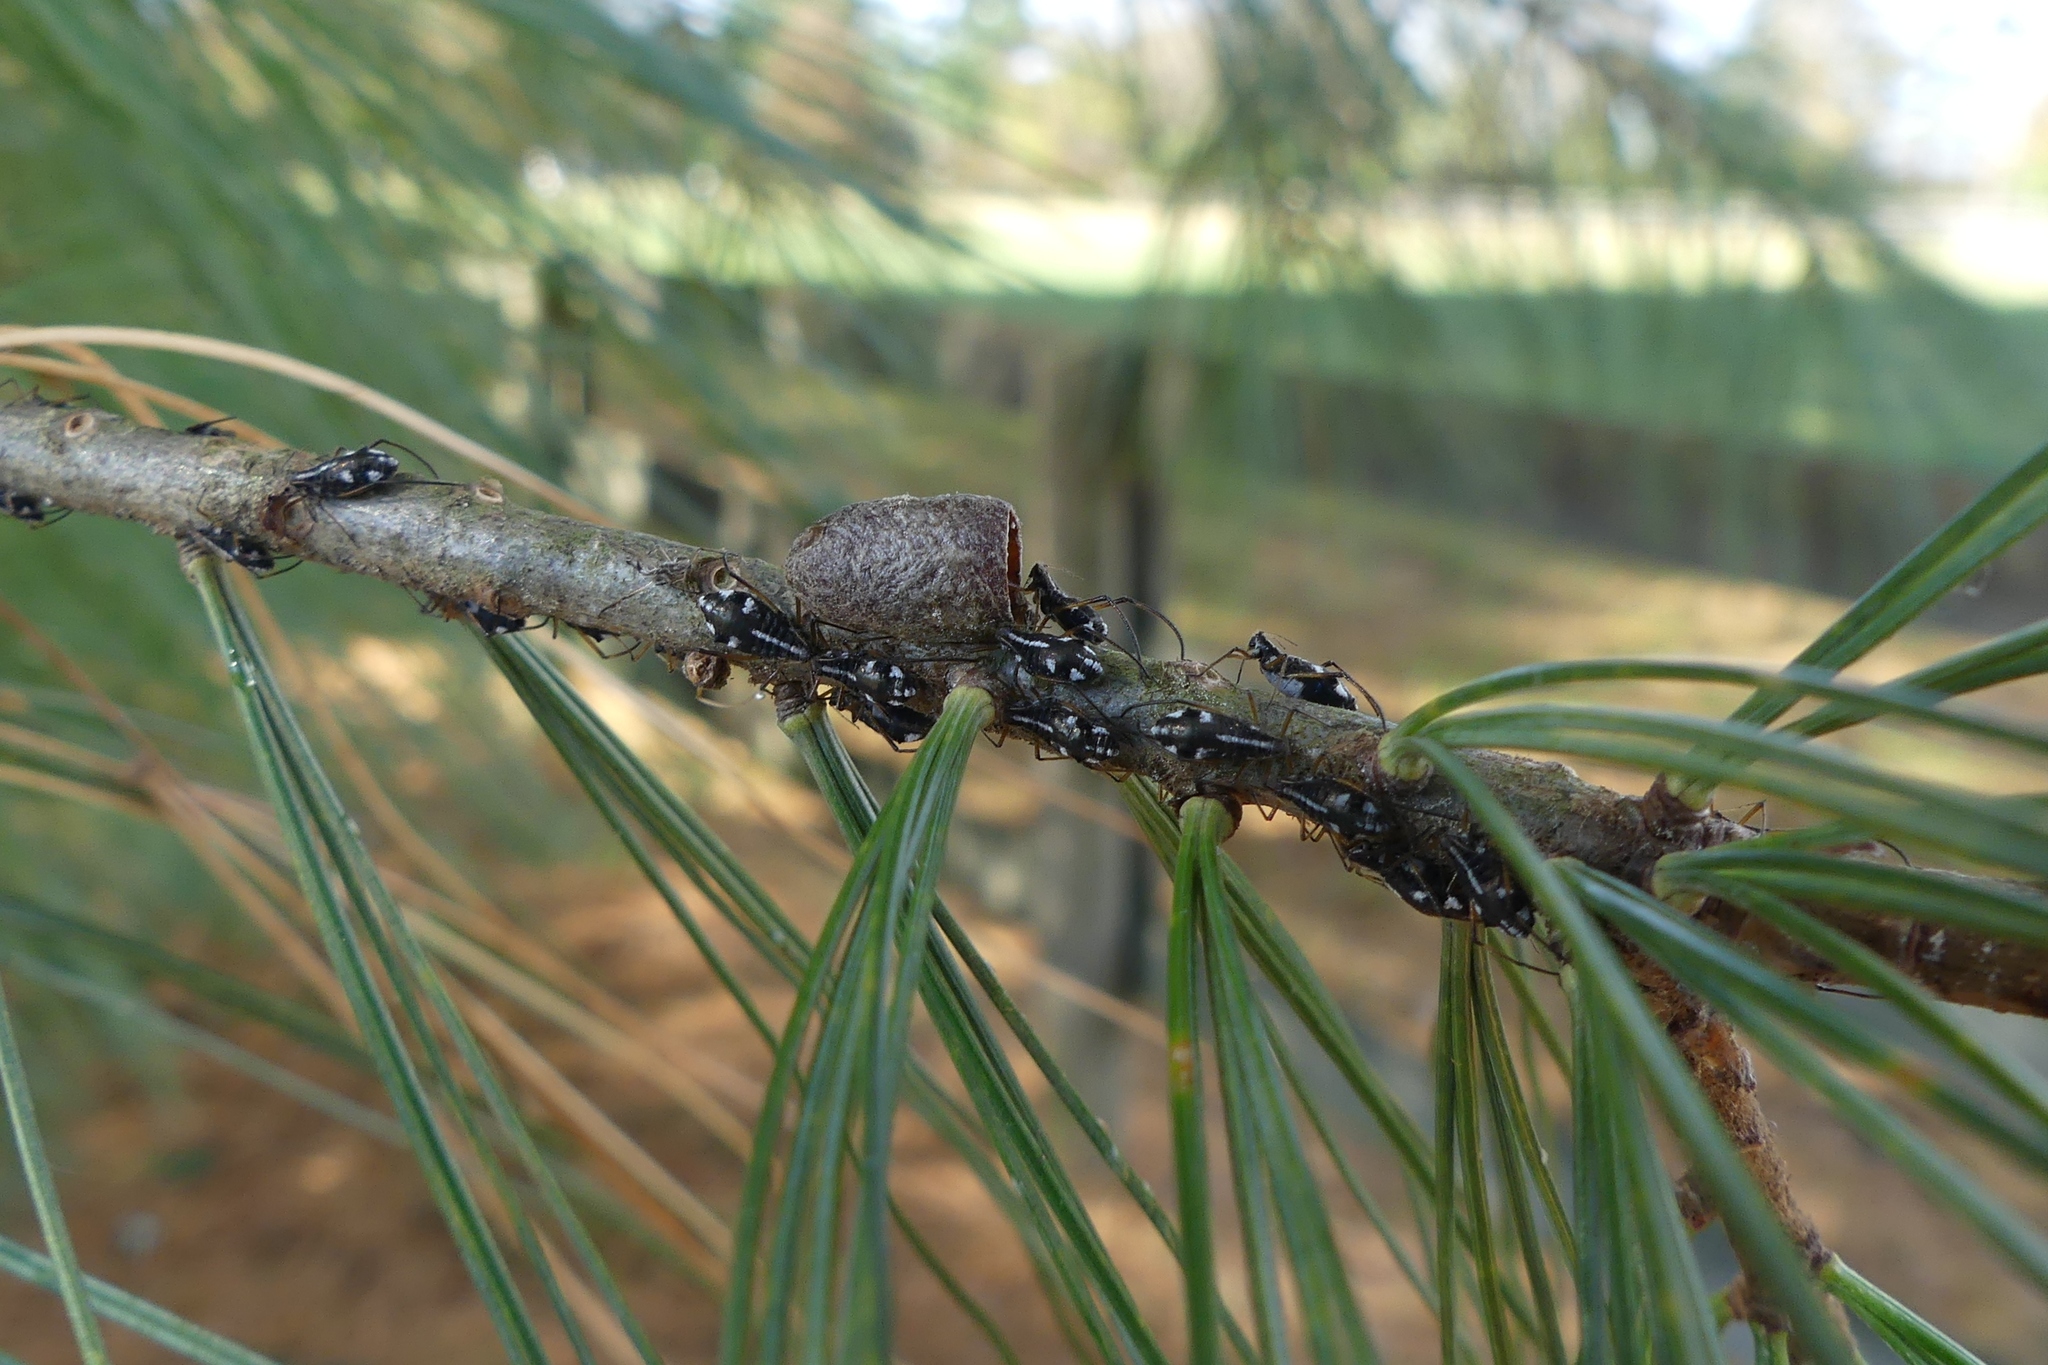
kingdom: Animalia
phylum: Arthropoda
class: Insecta
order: Hemiptera
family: Aphididae
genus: Cinara
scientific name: Cinara strobi
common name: White pine aphid
